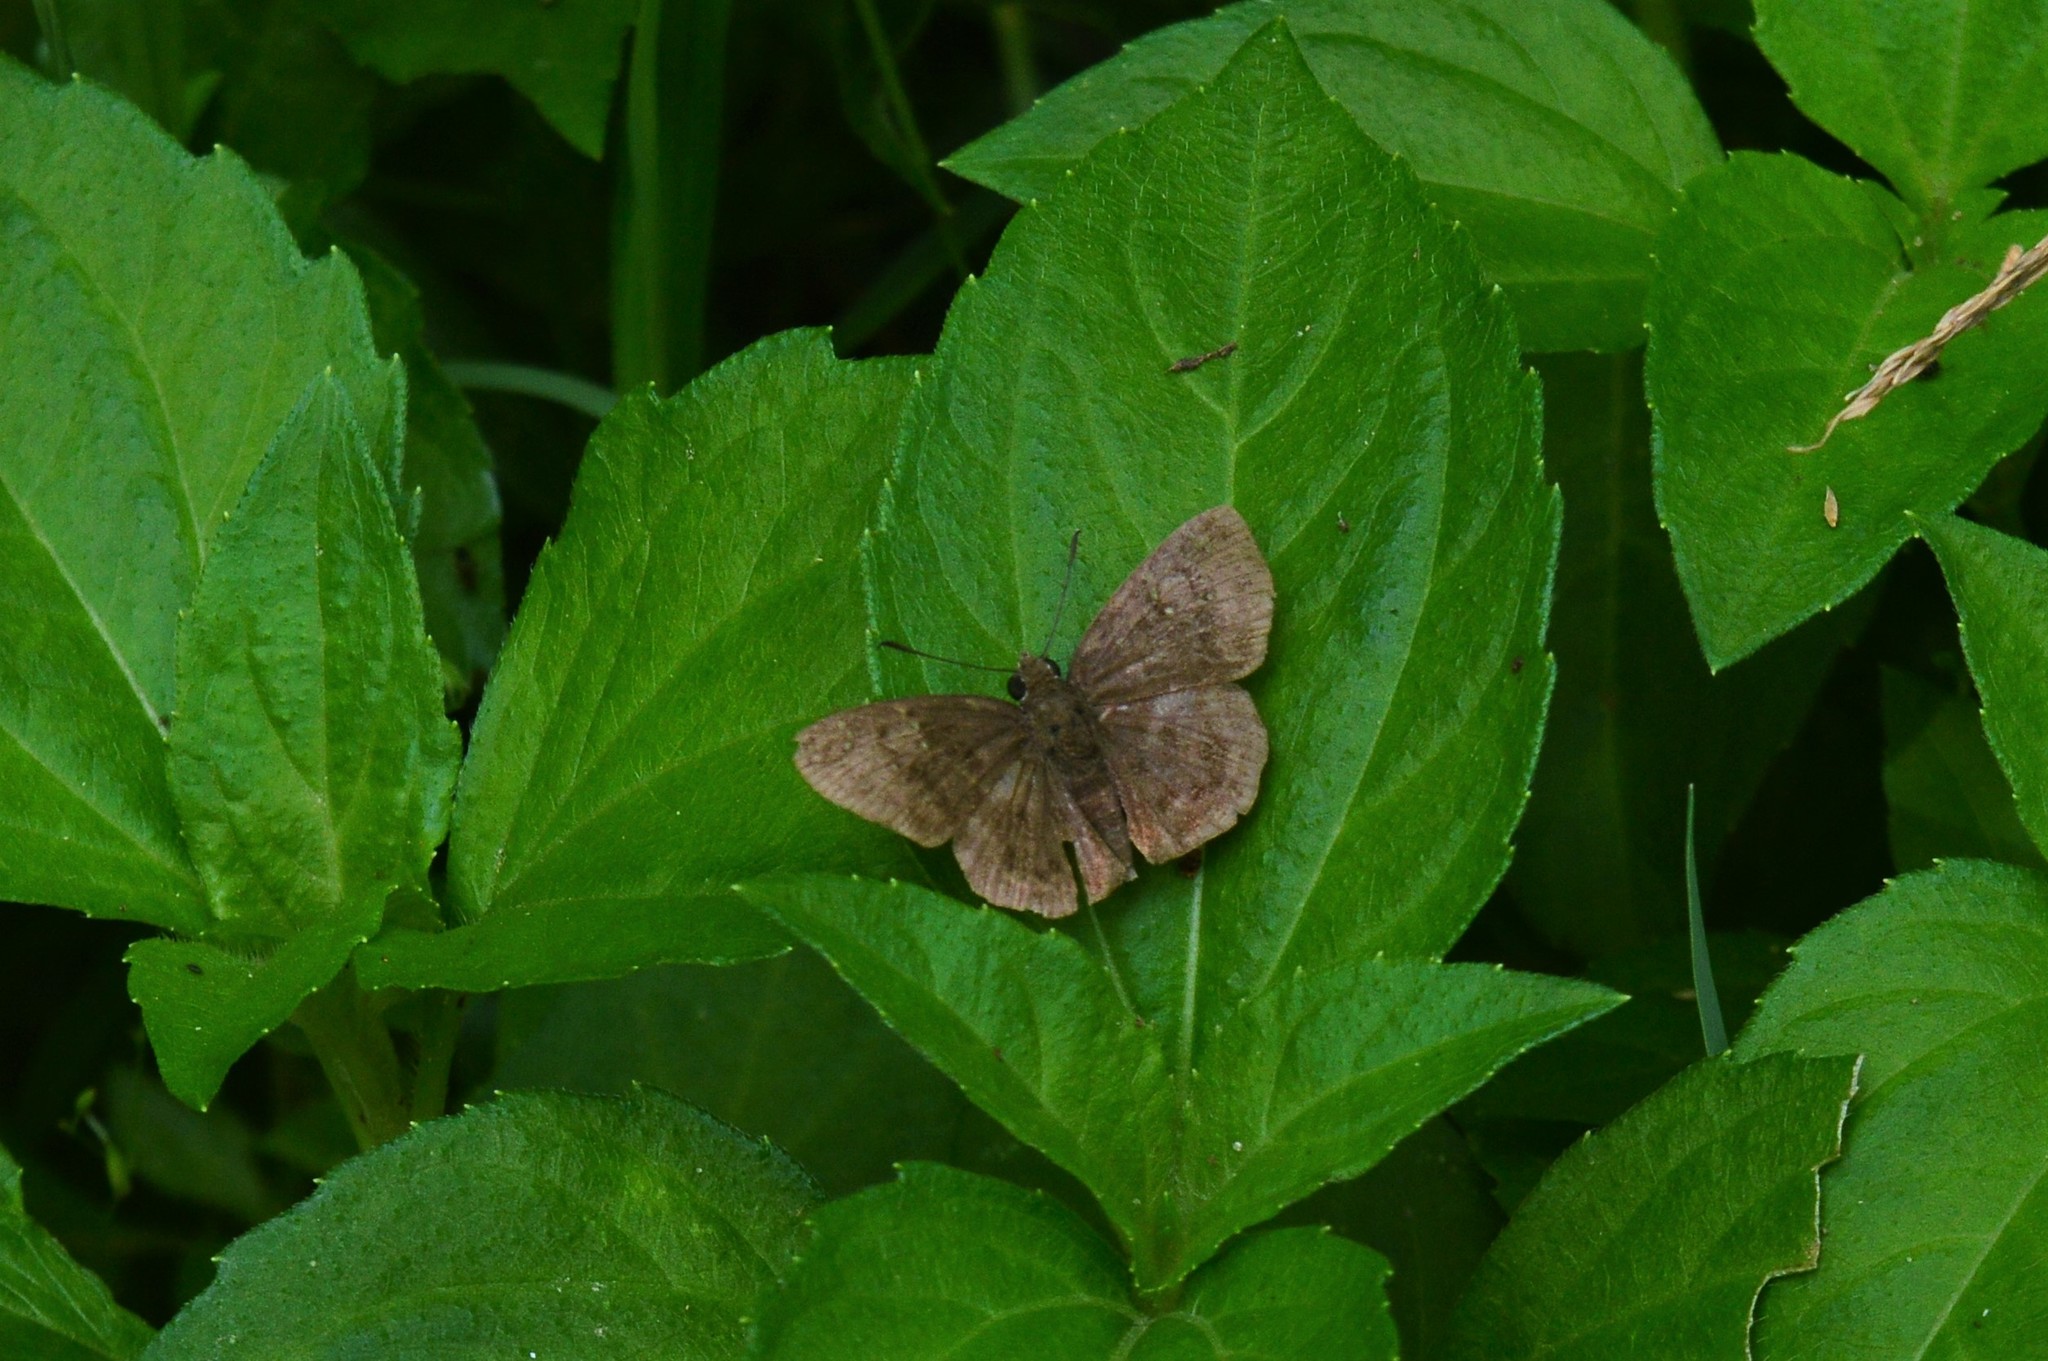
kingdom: Animalia
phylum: Arthropoda
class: Insecta
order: Lepidoptera
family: Hesperiidae
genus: Sarangesa
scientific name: Sarangesa dasahara
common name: Common small flat
